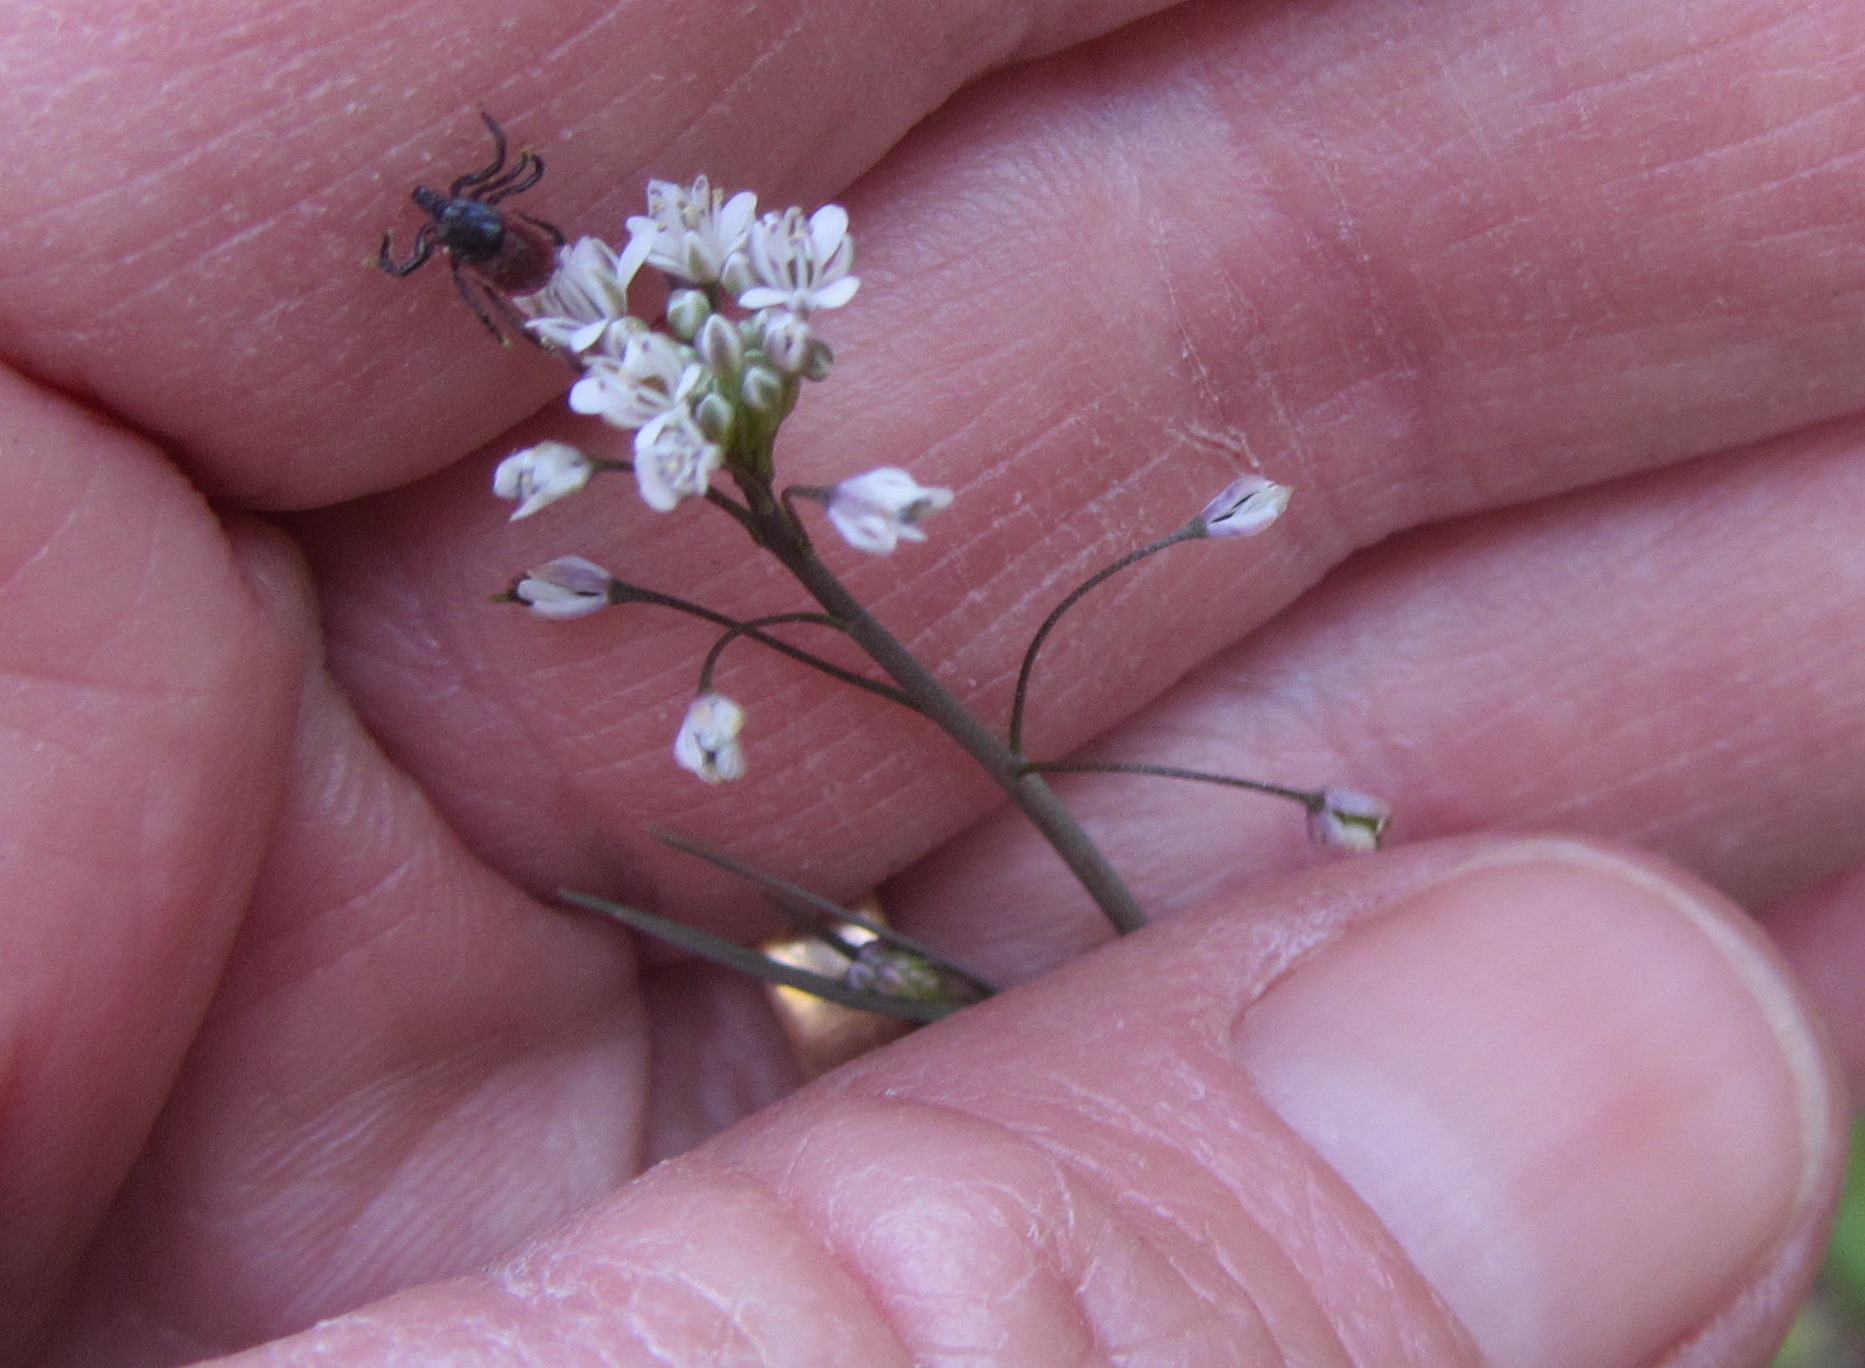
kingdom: Animalia
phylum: Arthropoda
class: Arachnida
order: Ixodida
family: Ixodidae
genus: Ixodes
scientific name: Ixodes pacificus
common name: California black-legged tick
